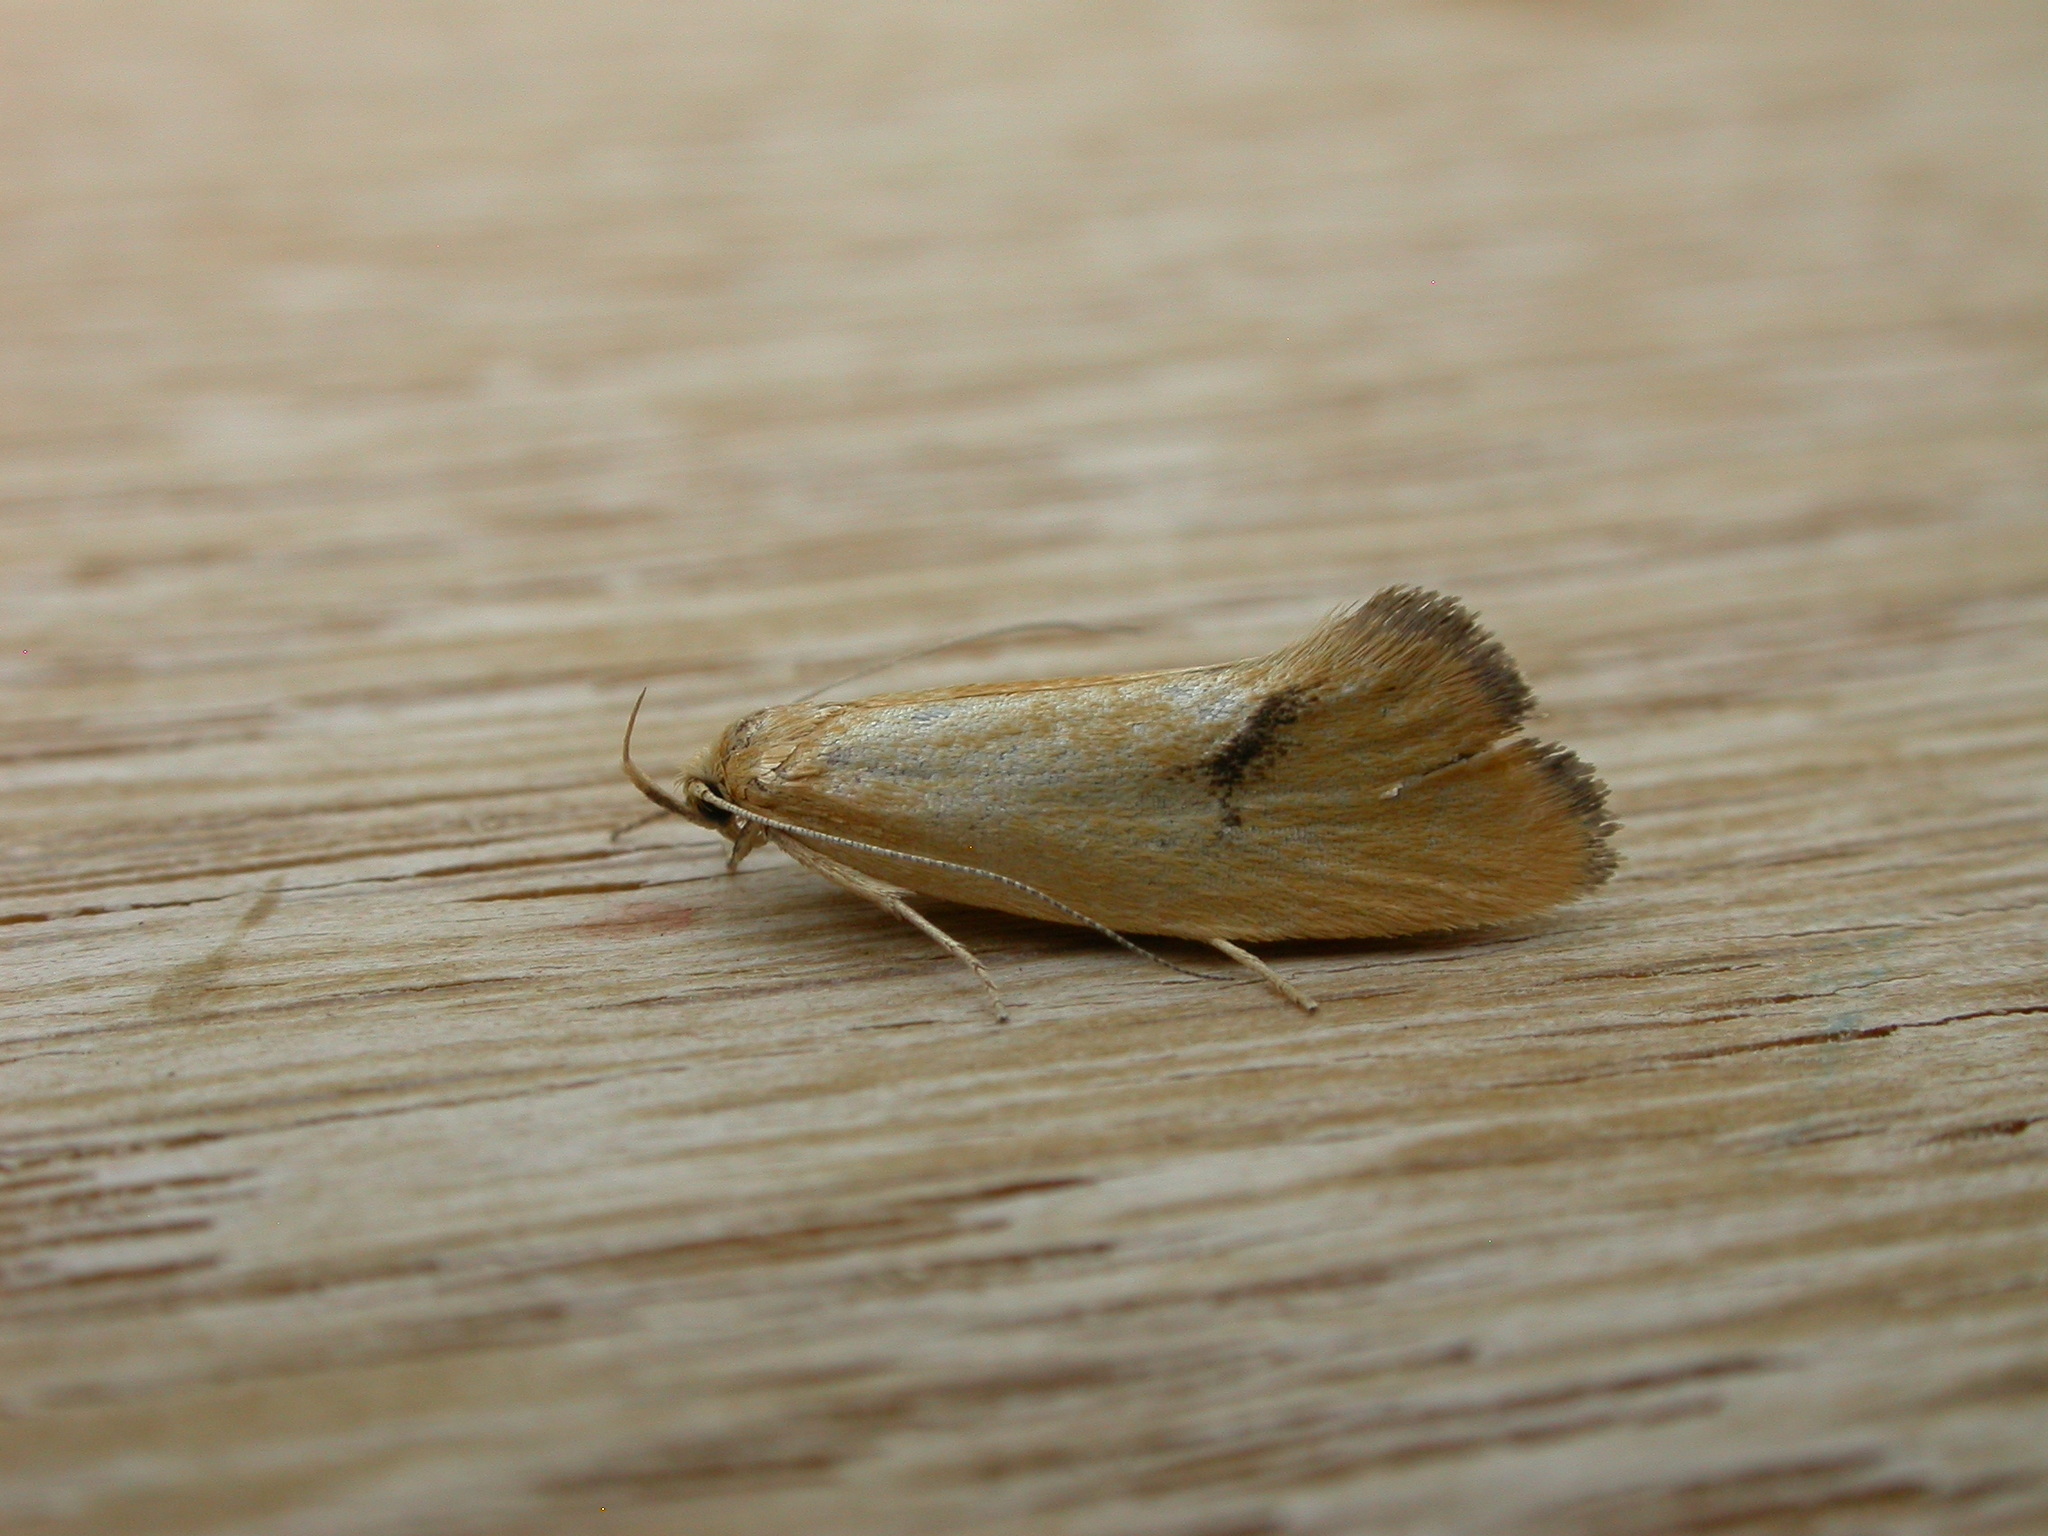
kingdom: Animalia
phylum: Arthropoda
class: Insecta
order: Lepidoptera
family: Oecophoridae
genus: Telocharacta
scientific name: Telocharacta hemicroca
